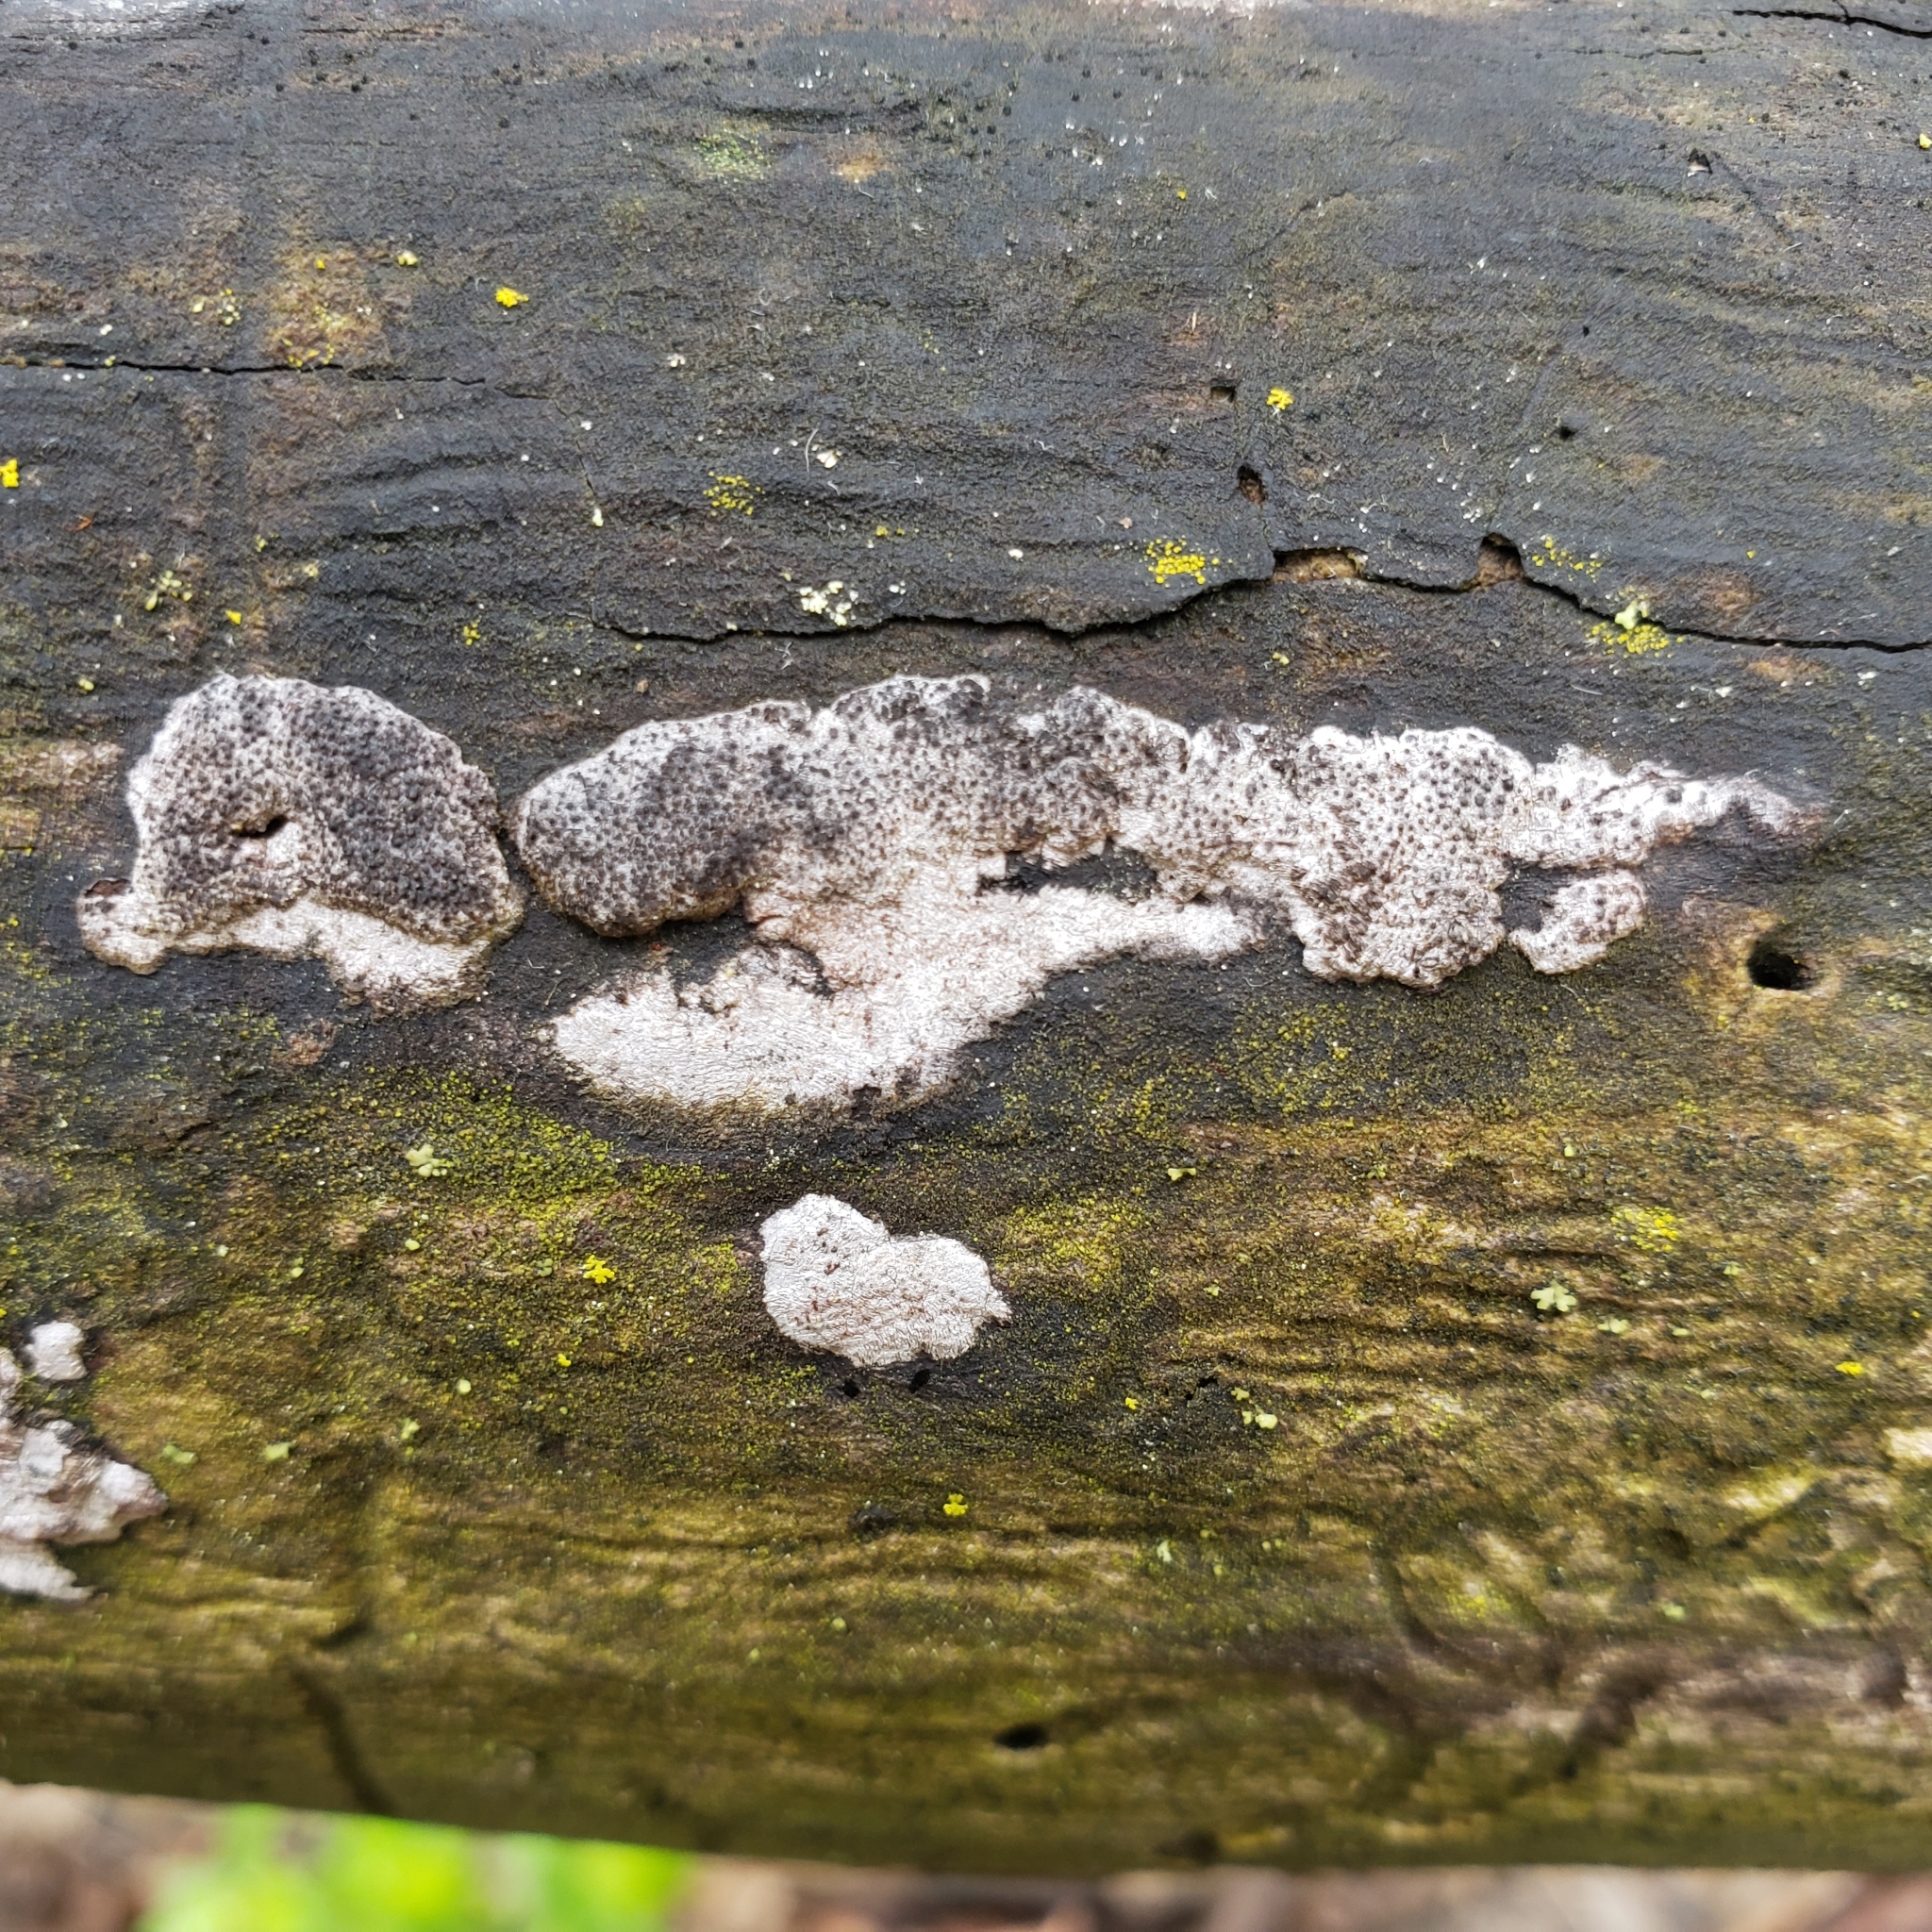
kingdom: Fungi
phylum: Ascomycota
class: Sordariomycetes
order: Xylariales
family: Graphostromataceae
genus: Biscogniauxia
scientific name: Biscogniauxia atropunctata
